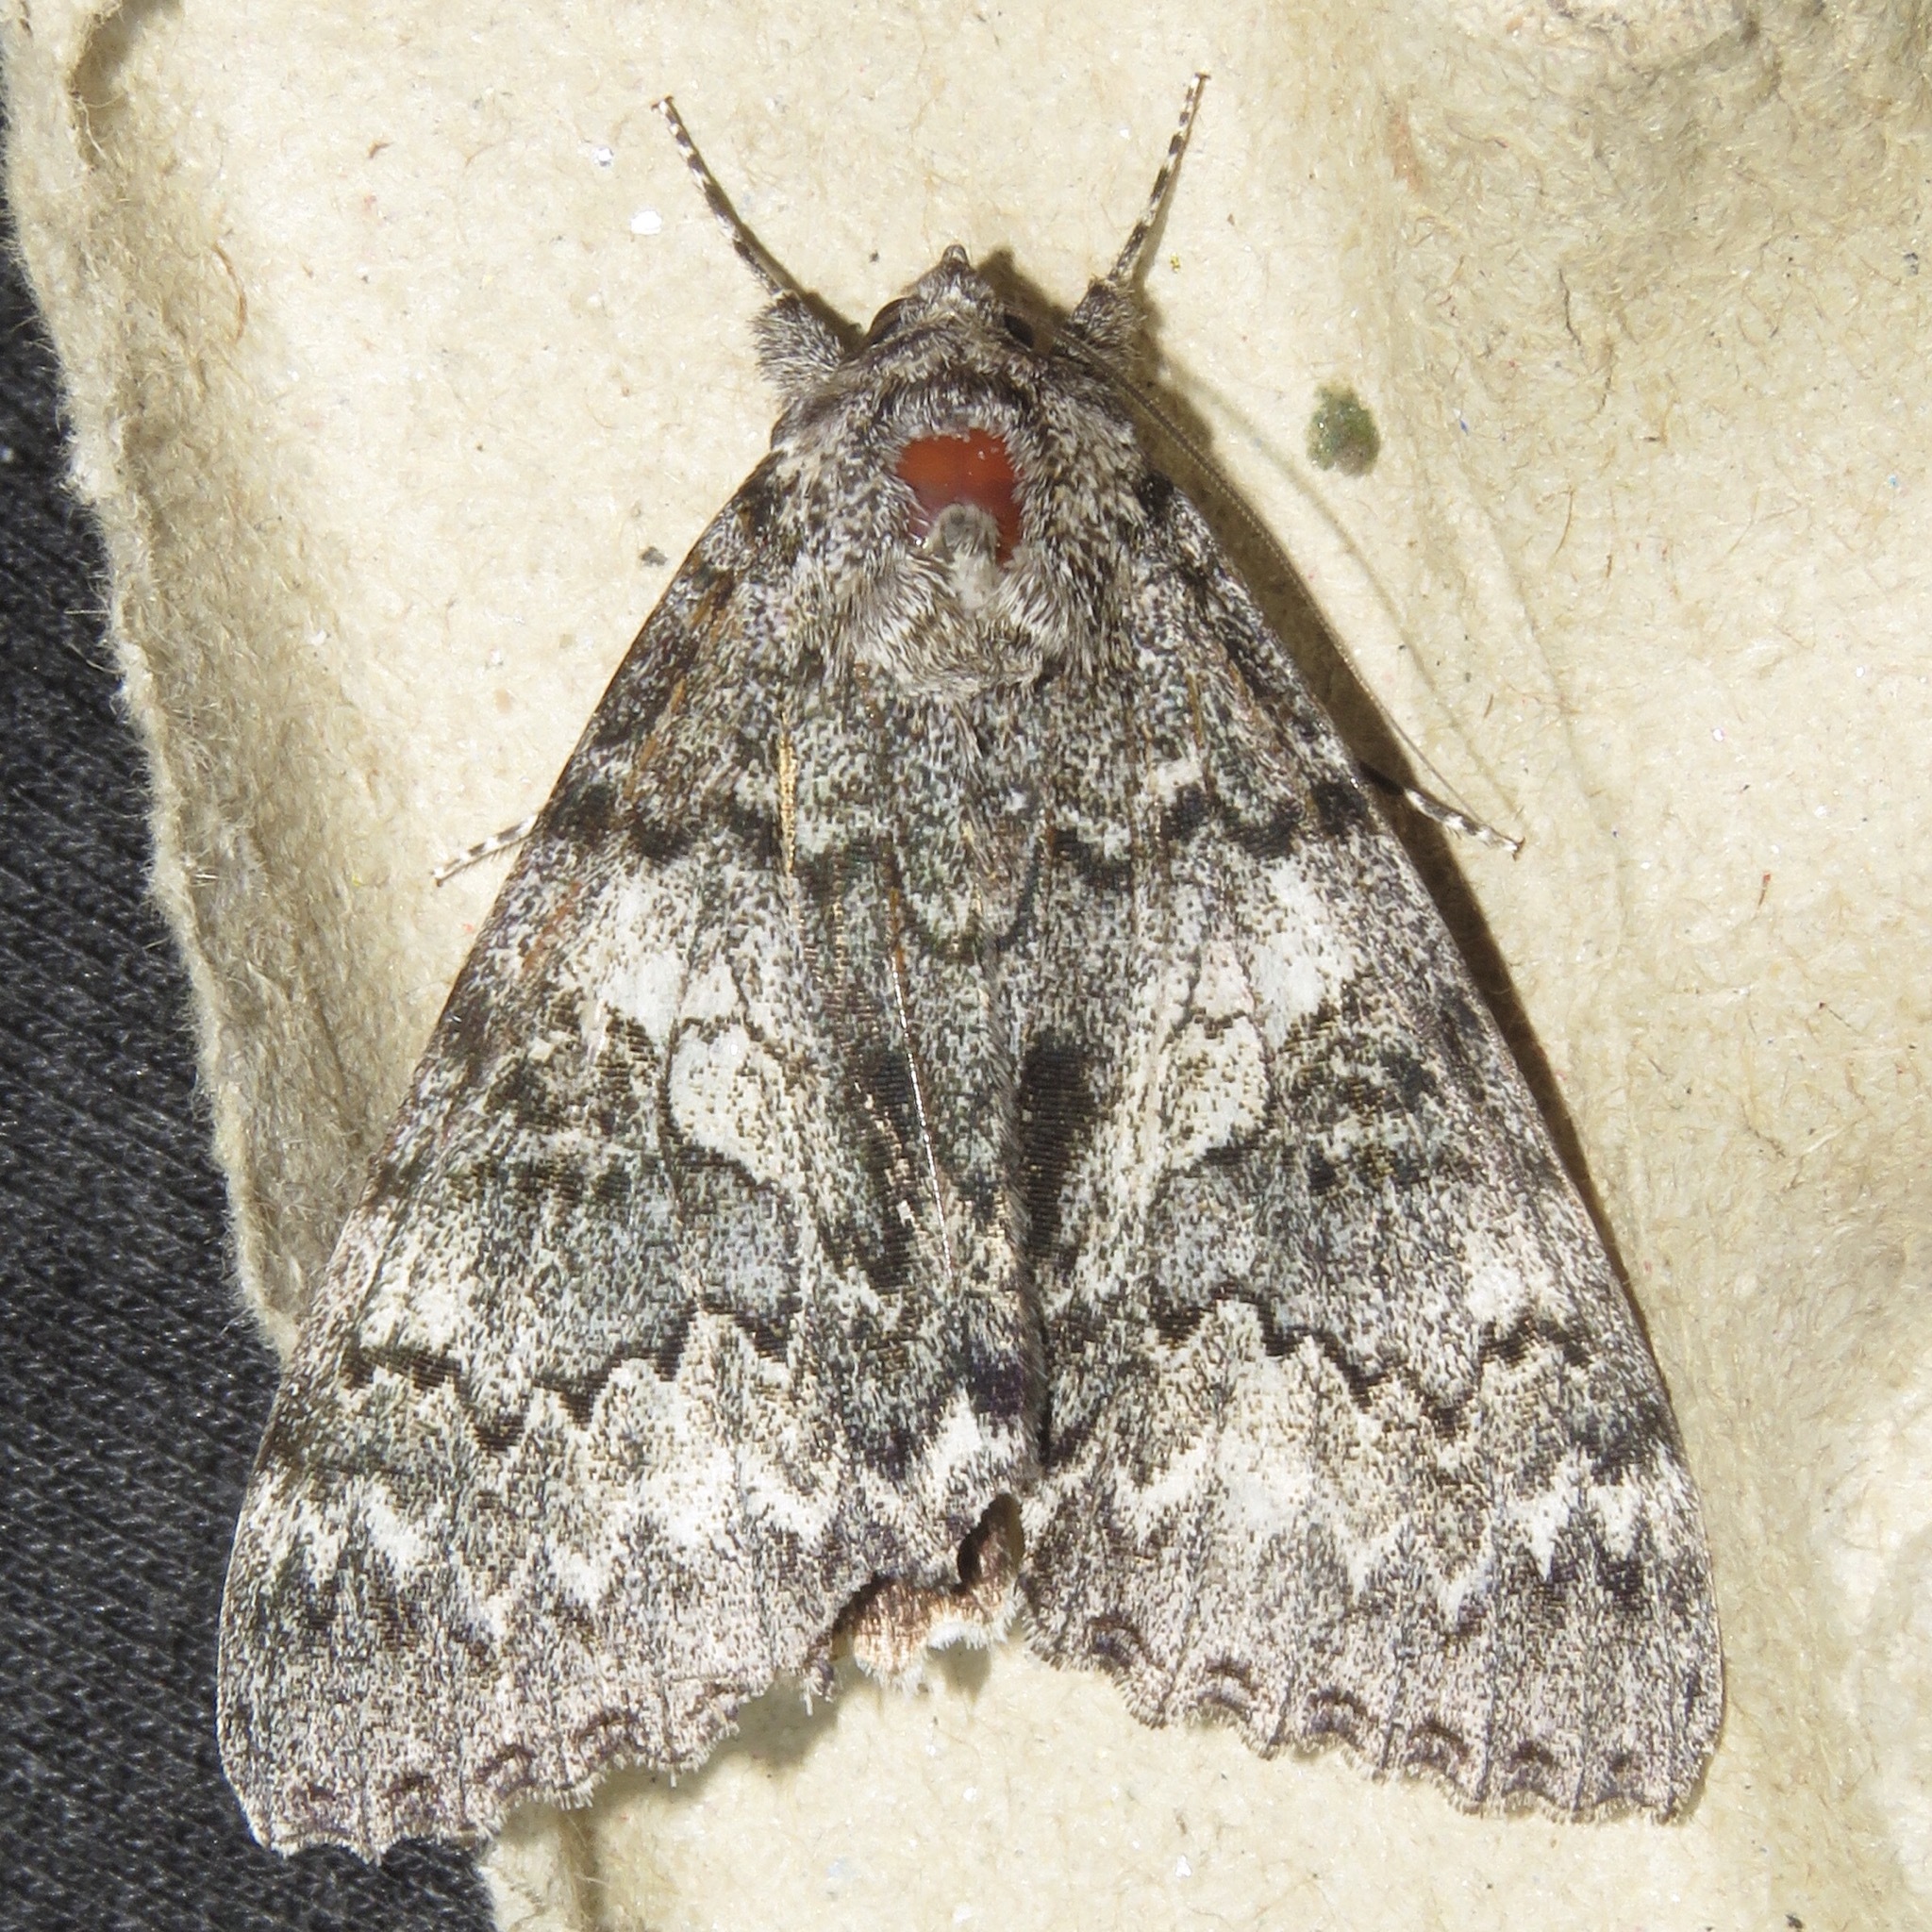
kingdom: Animalia
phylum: Arthropoda
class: Insecta
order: Lepidoptera
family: Erebidae
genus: Catocala
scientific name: Catocala unijuga
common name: Once-married underwing
